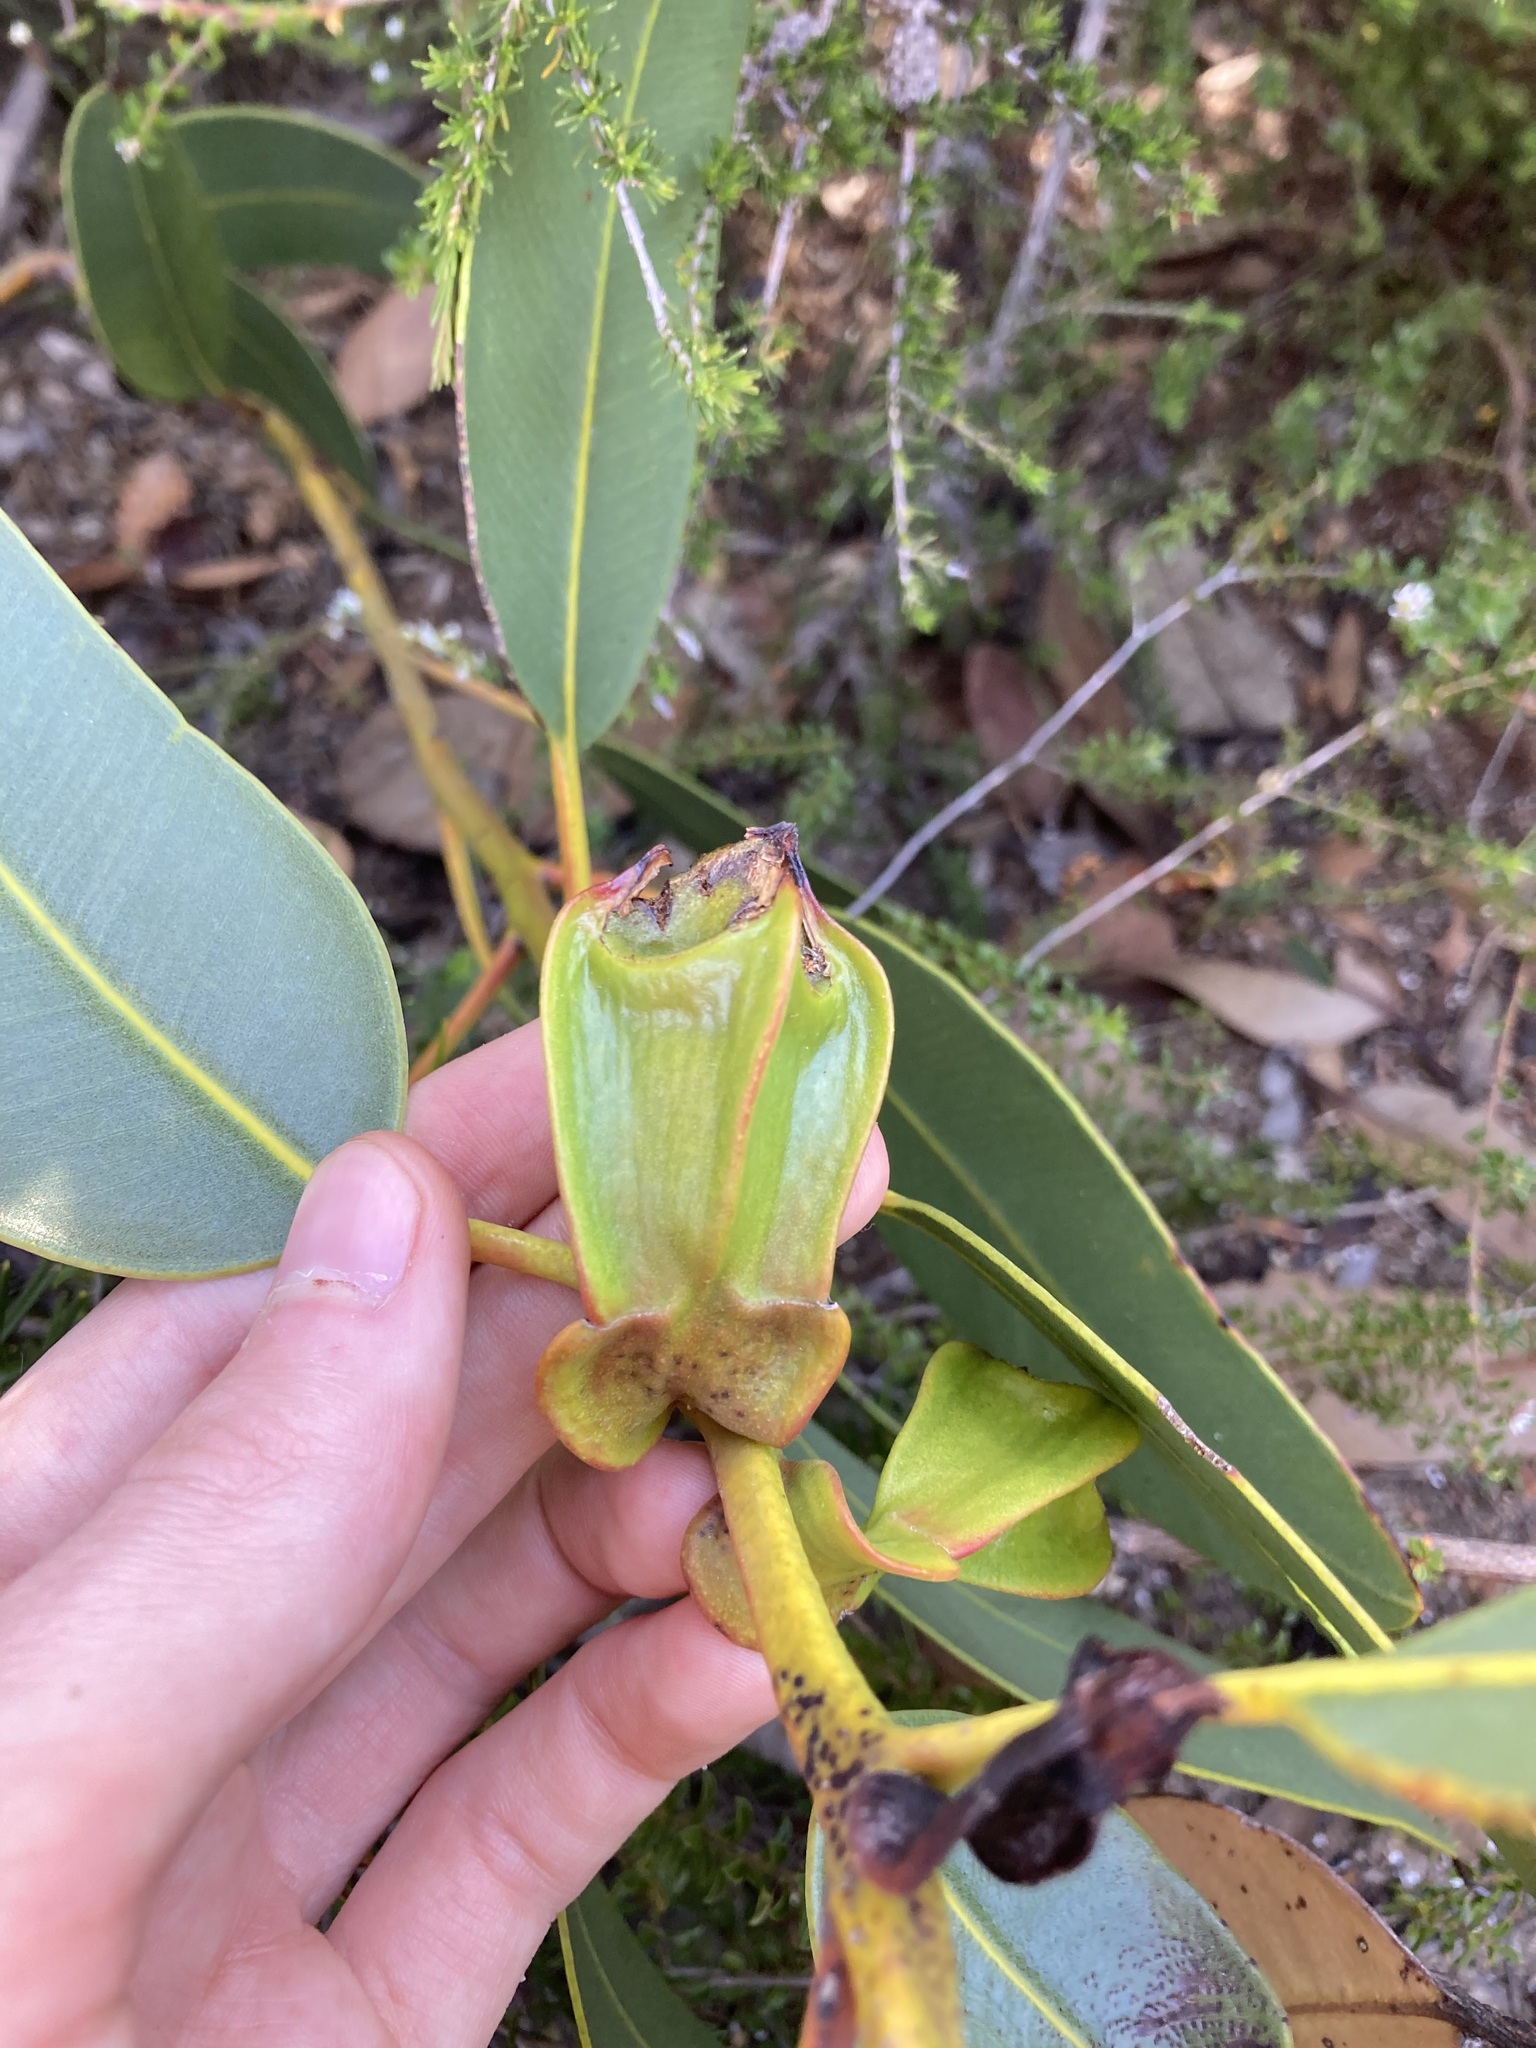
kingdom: Plantae
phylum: Tracheophyta
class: Magnoliopsida
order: Myrtales
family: Myrtaceae
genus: Eucalyptus
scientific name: Eucalyptus tetraptera
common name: Four-wing mallee
